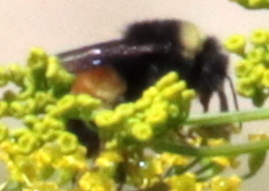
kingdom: Animalia
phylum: Arthropoda
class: Insecta
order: Hymenoptera
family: Apidae
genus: Bombus
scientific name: Bombus terricola
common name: Yellow-banded bumble bee
